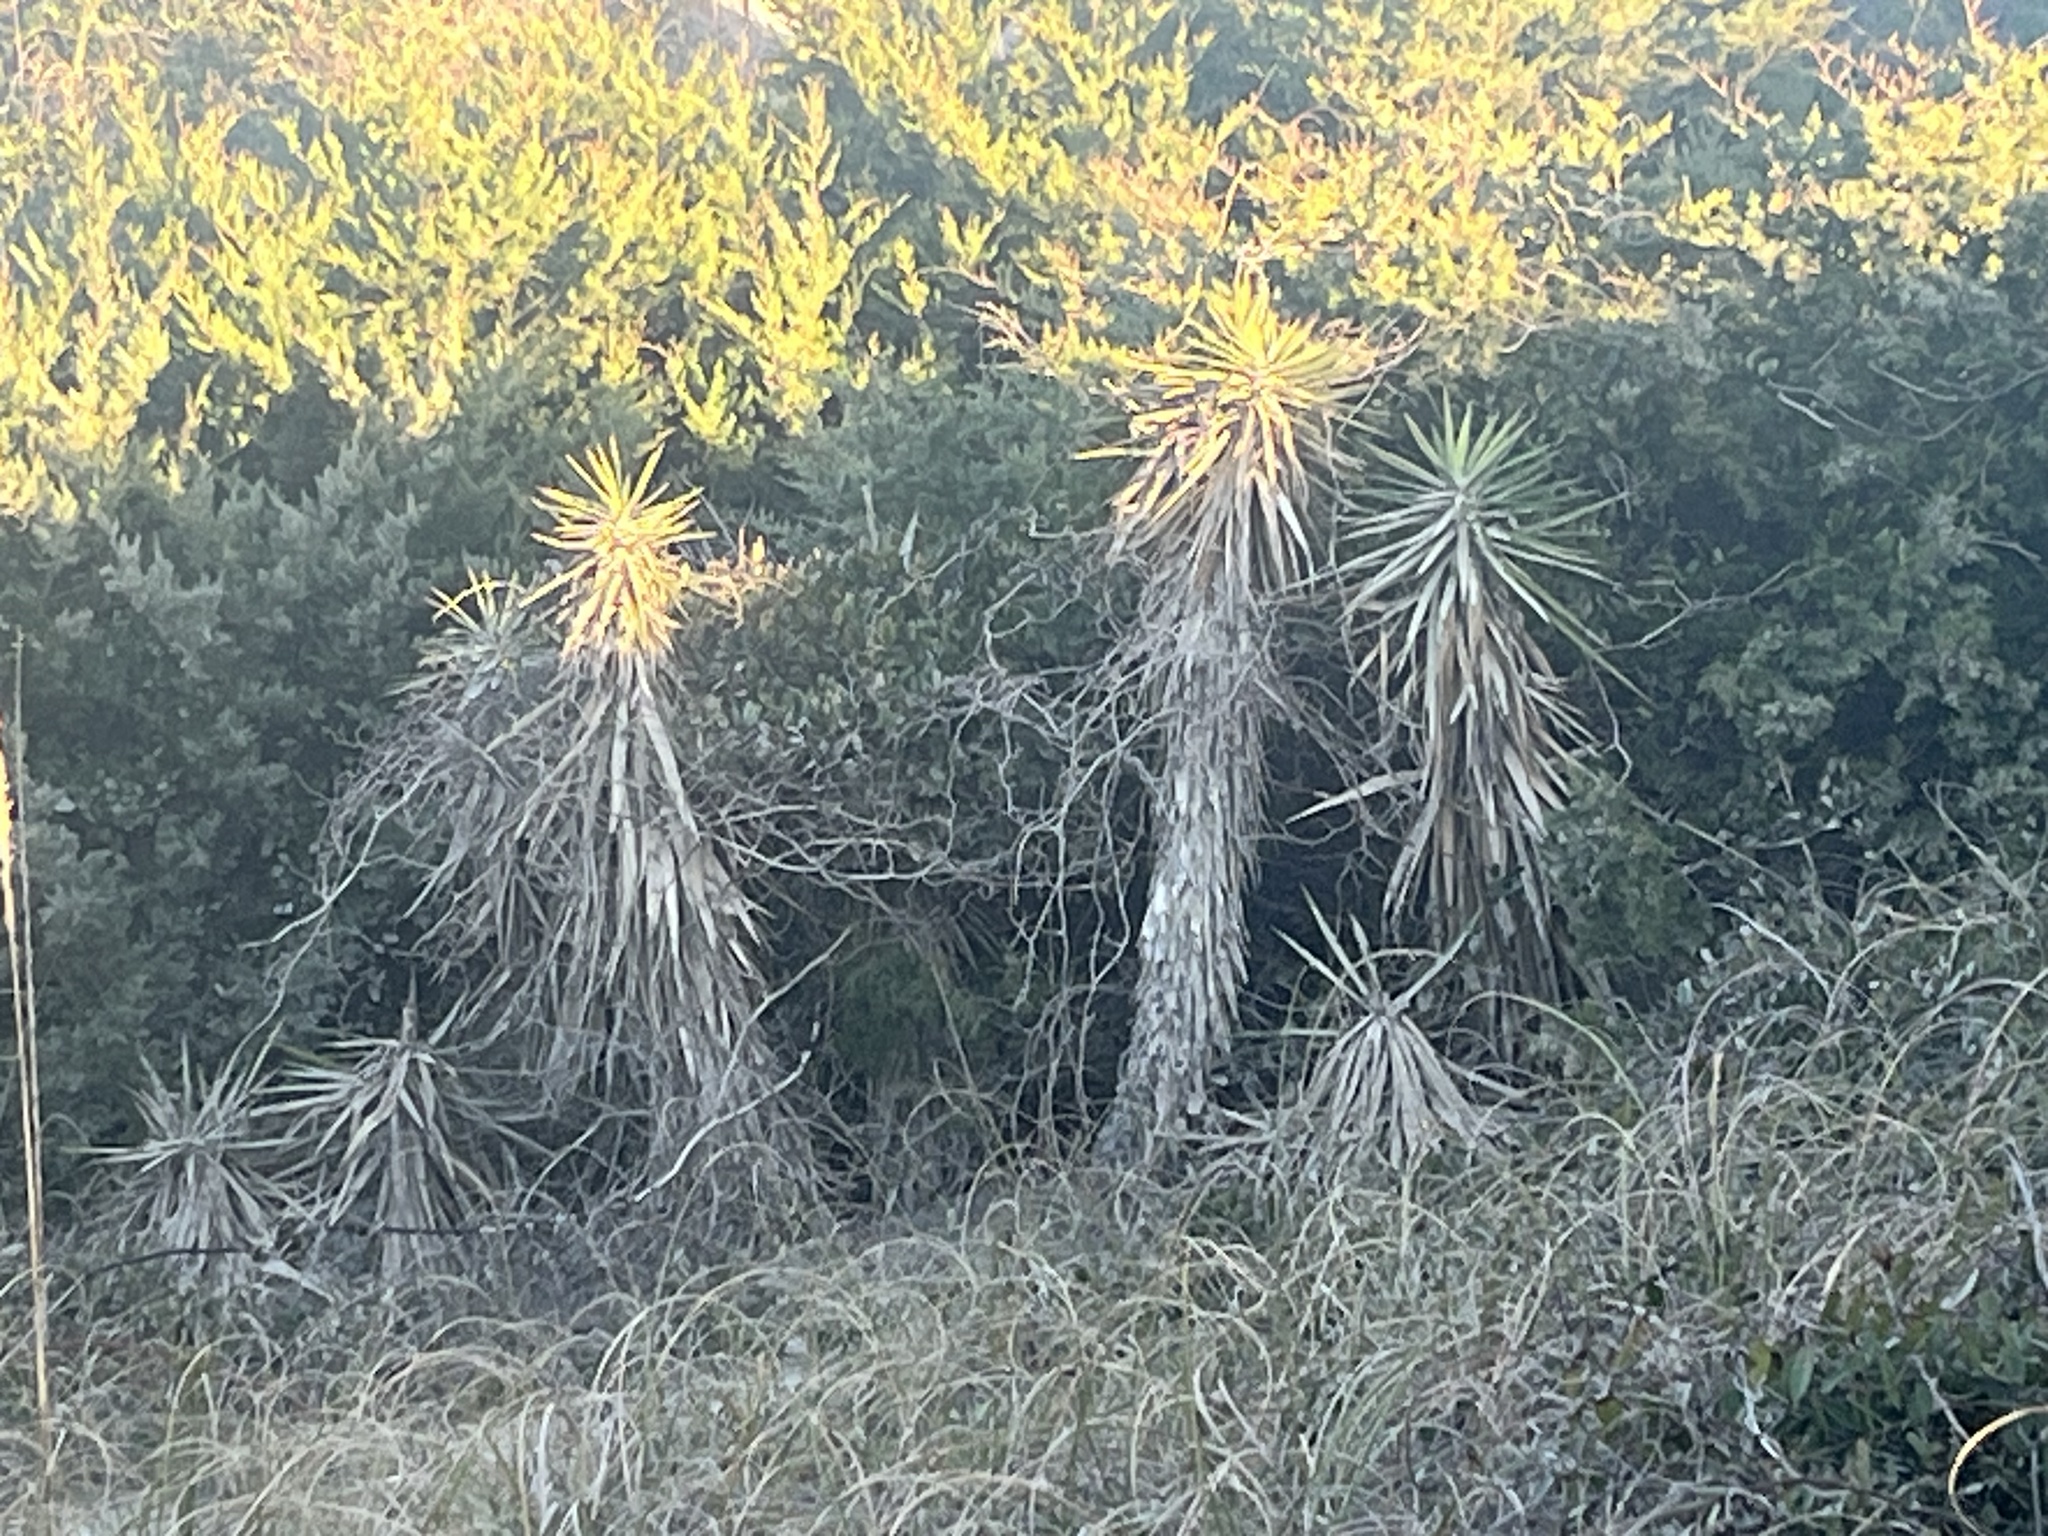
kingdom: Plantae
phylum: Tracheophyta
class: Liliopsida
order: Asparagales
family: Asparagaceae
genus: Yucca
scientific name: Yucca aloifolia
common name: Aloe yucca
